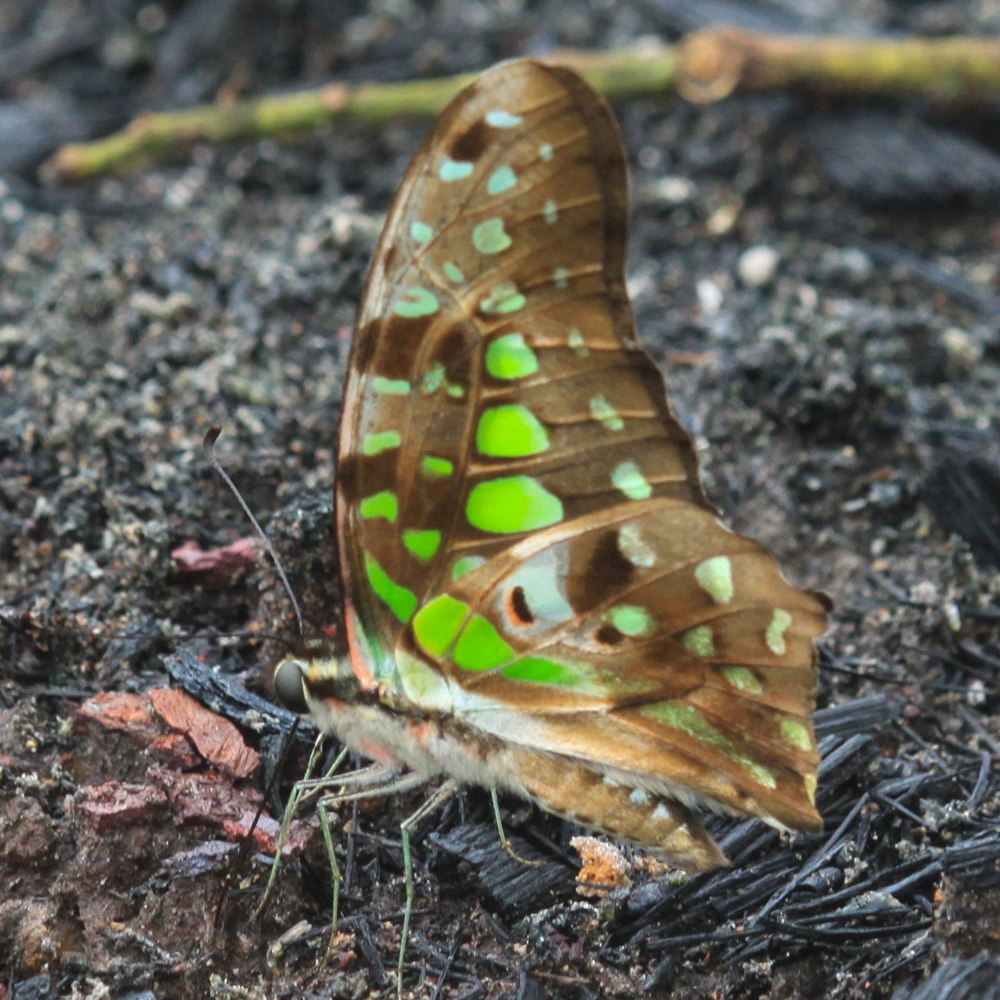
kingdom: Animalia
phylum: Arthropoda
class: Insecta
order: Lepidoptera
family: Papilionidae
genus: Graphium
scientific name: Graphium agamemnon
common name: Tailed jay
